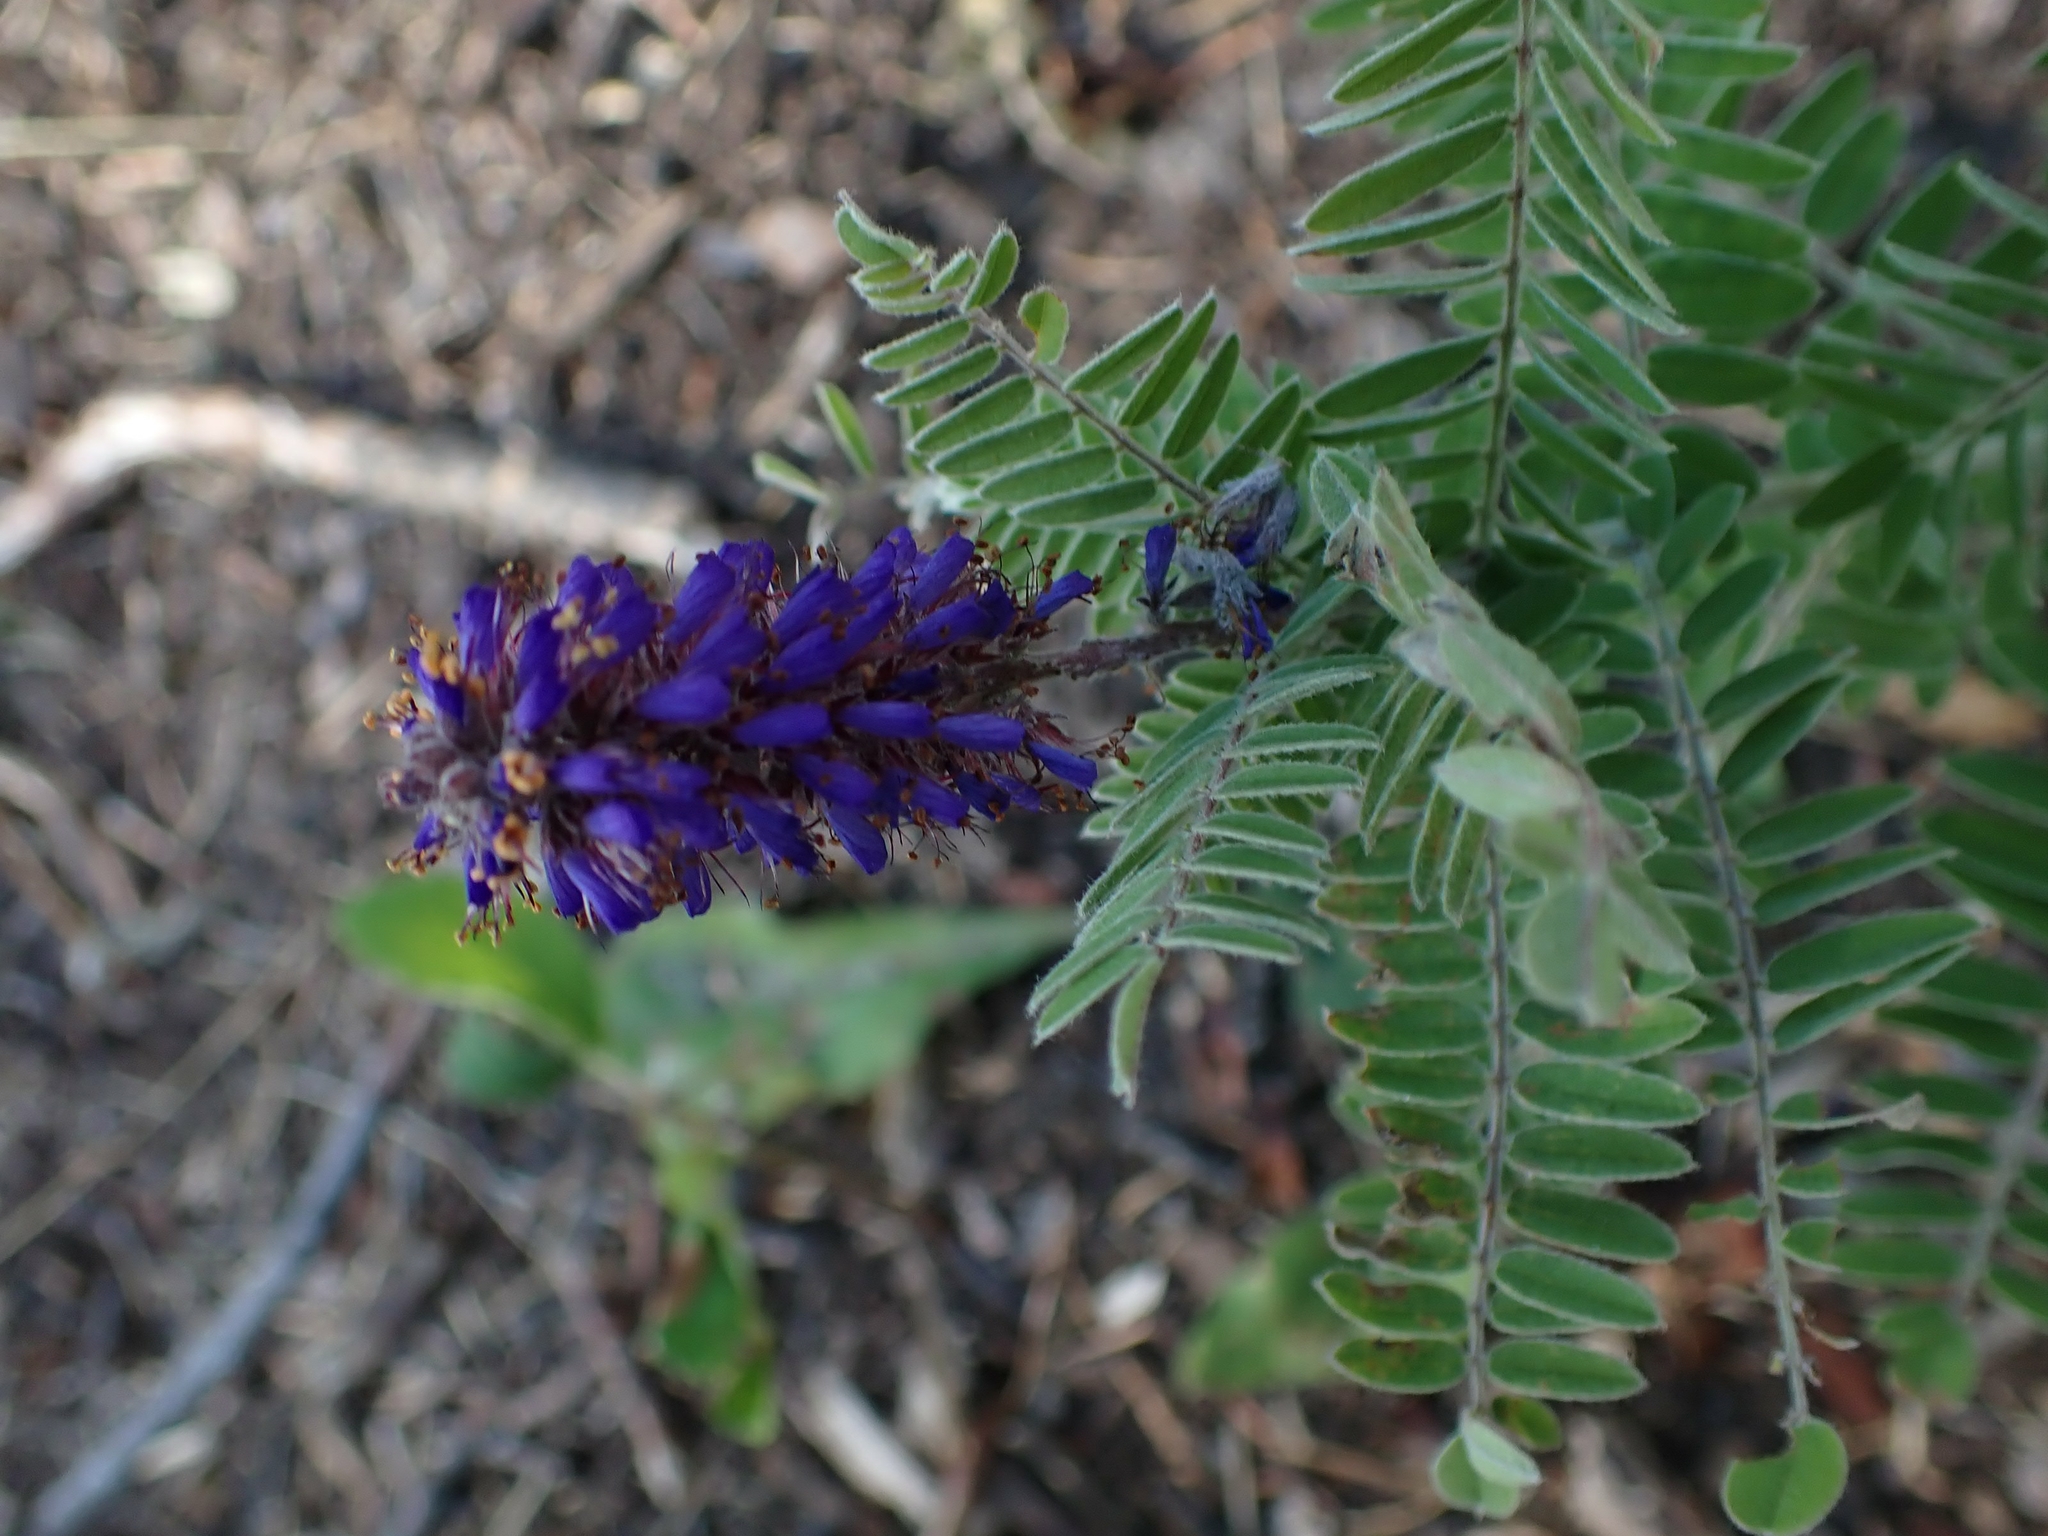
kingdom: Plantae
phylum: Tracheophyta
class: Magnoliopsida
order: Fabales
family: Fabaceae
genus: Amorpha
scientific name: Amorpha canescens
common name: Leadplant
